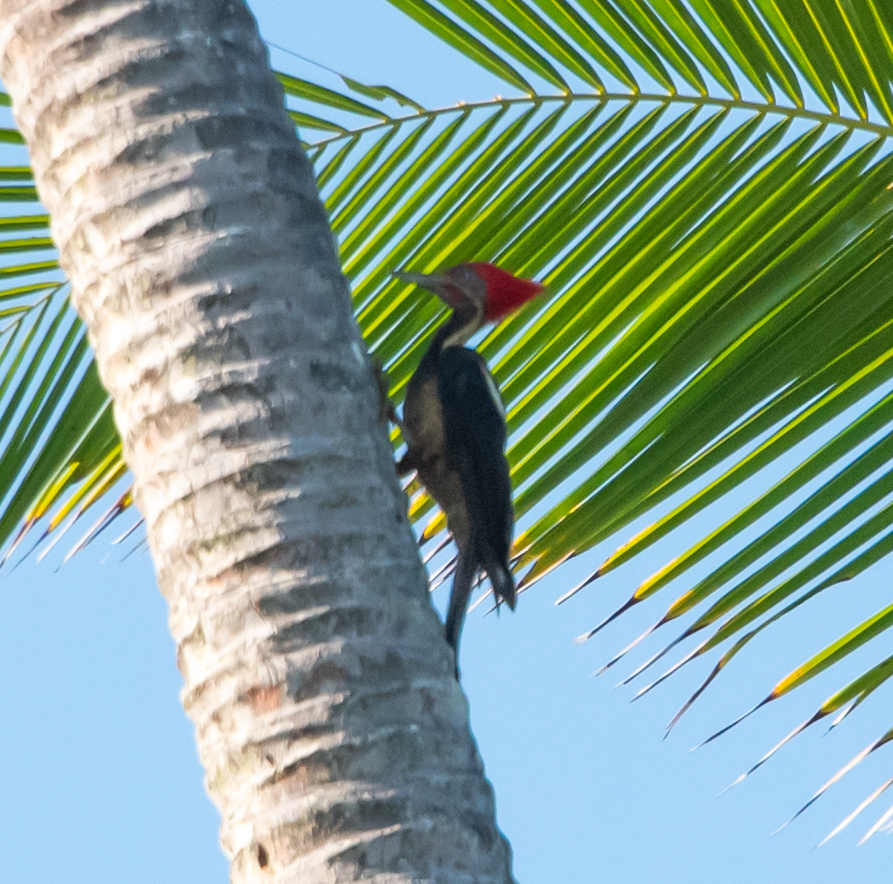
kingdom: Animalia
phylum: Chordata
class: Aves
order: Piciformes
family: Picidae
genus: Dryocopus
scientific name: Dryocopus lineatus
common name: Lineated woodpecker
